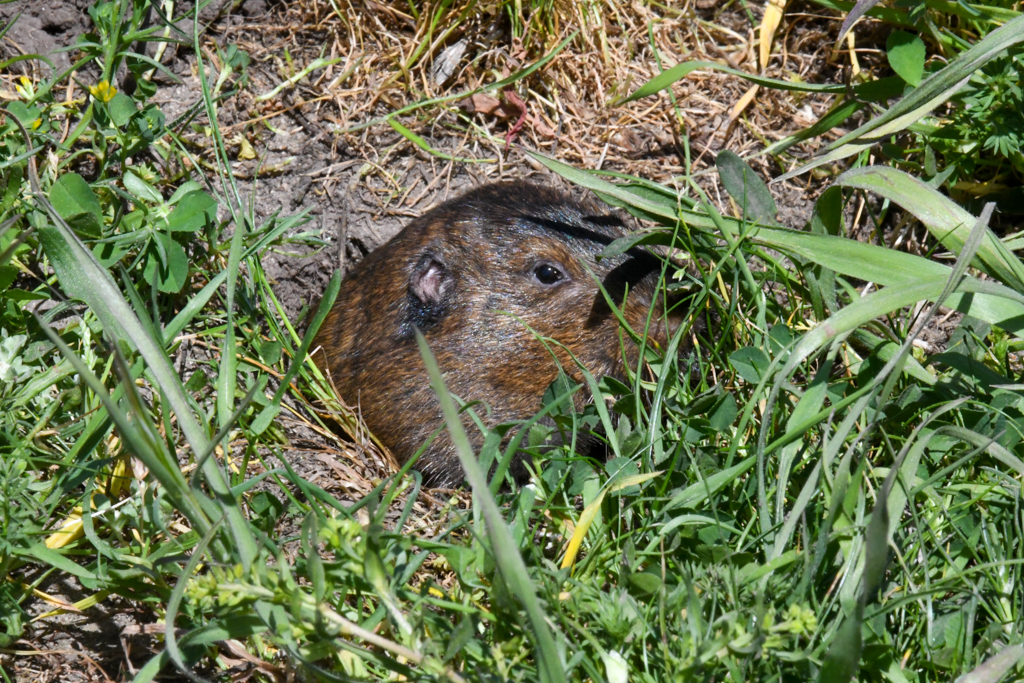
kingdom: Animalia
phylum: Chordata
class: Mammalia
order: Rodentia
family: Geomyidae
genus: Thomomys
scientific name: Thomomys bottae
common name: Botta's pocket gopher
